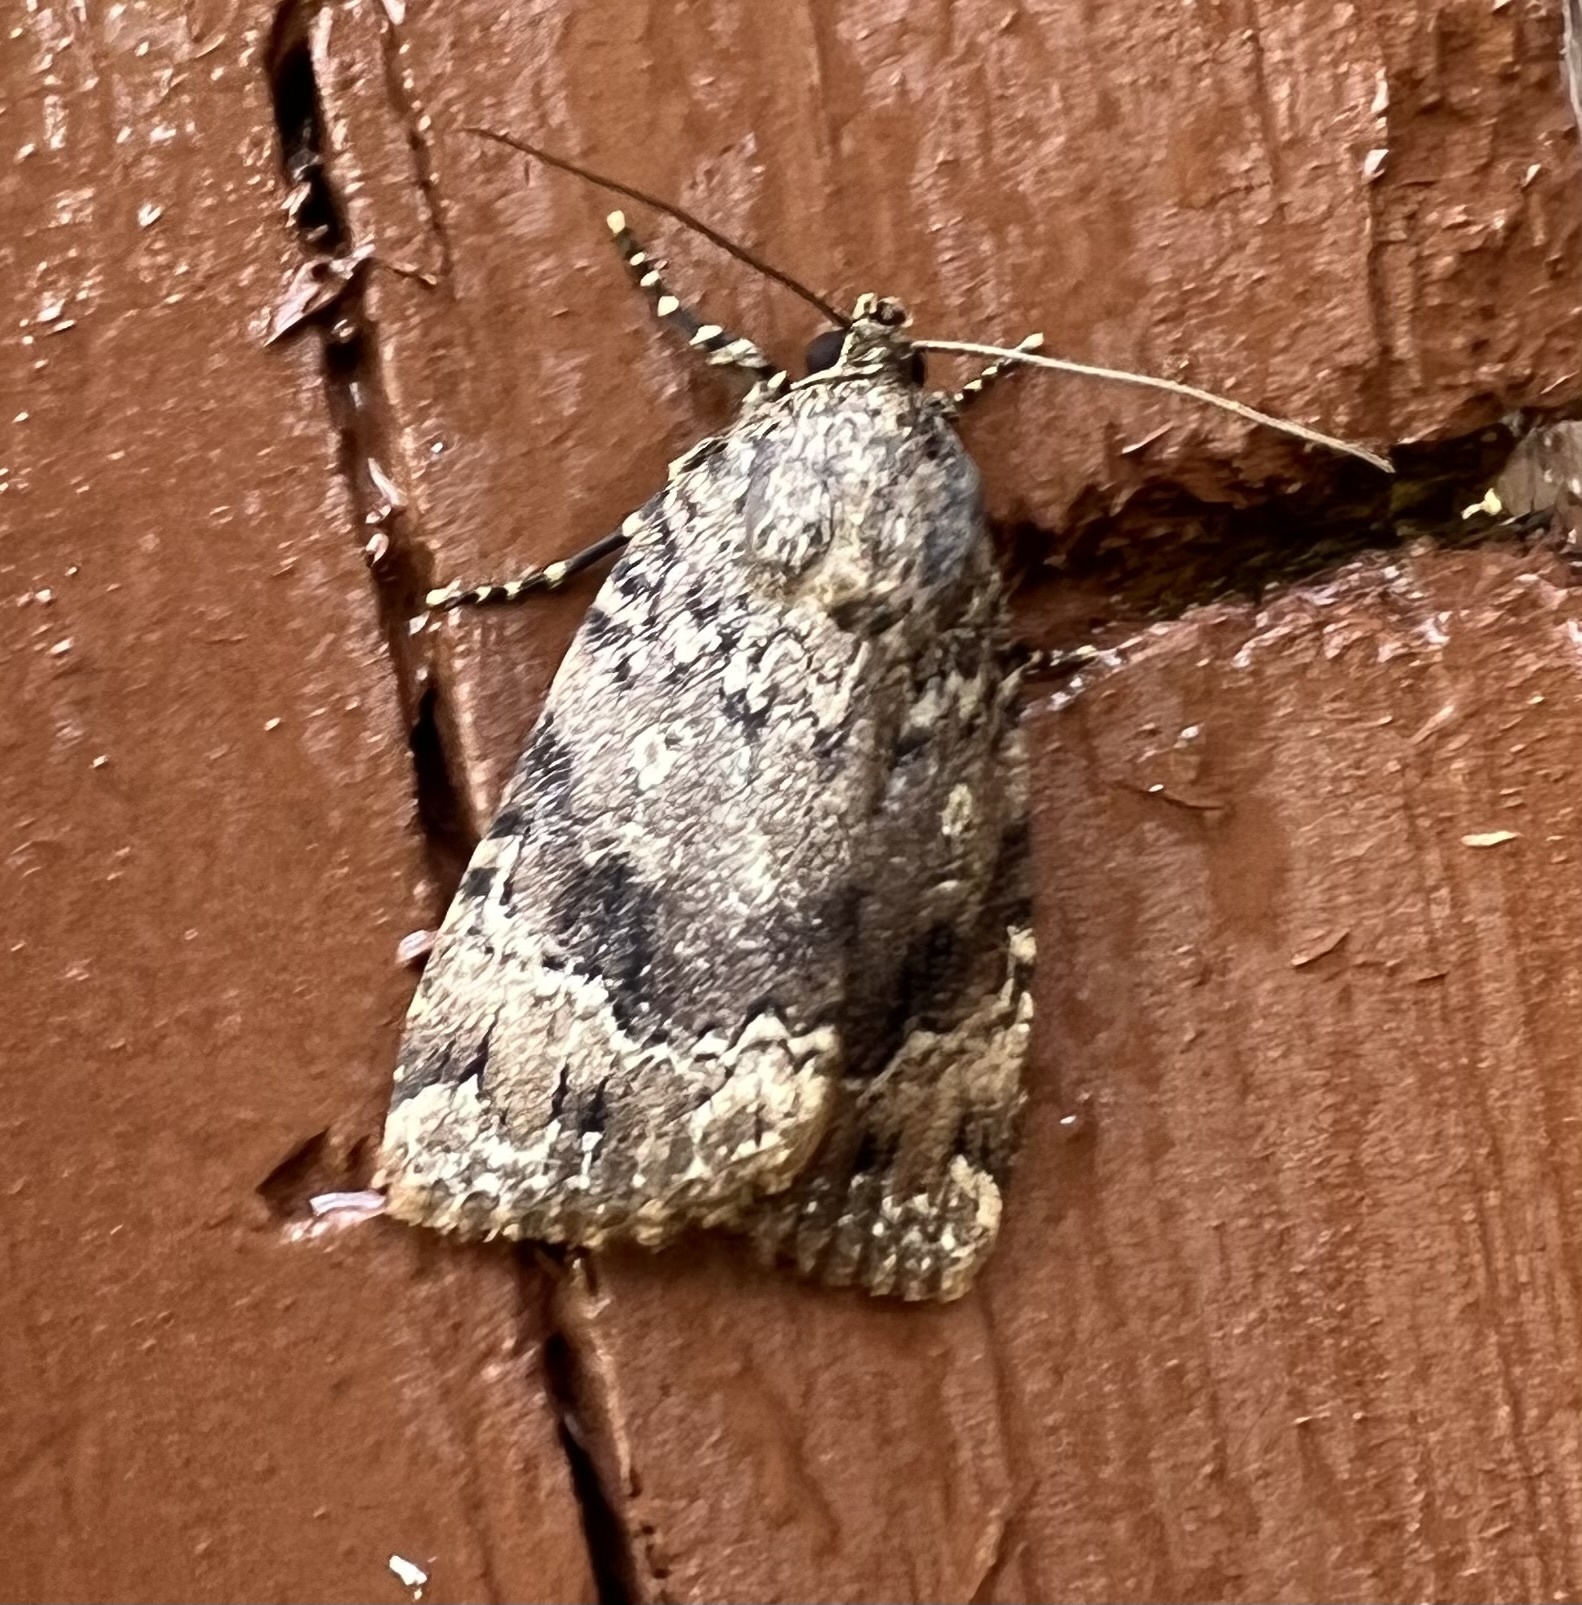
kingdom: Animalia
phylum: Arthropoda
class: Insecta
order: Lepidoptera
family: Noctuidae
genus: Amphipyra
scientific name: Amphipyra pyramidoides
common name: American copper underwing
